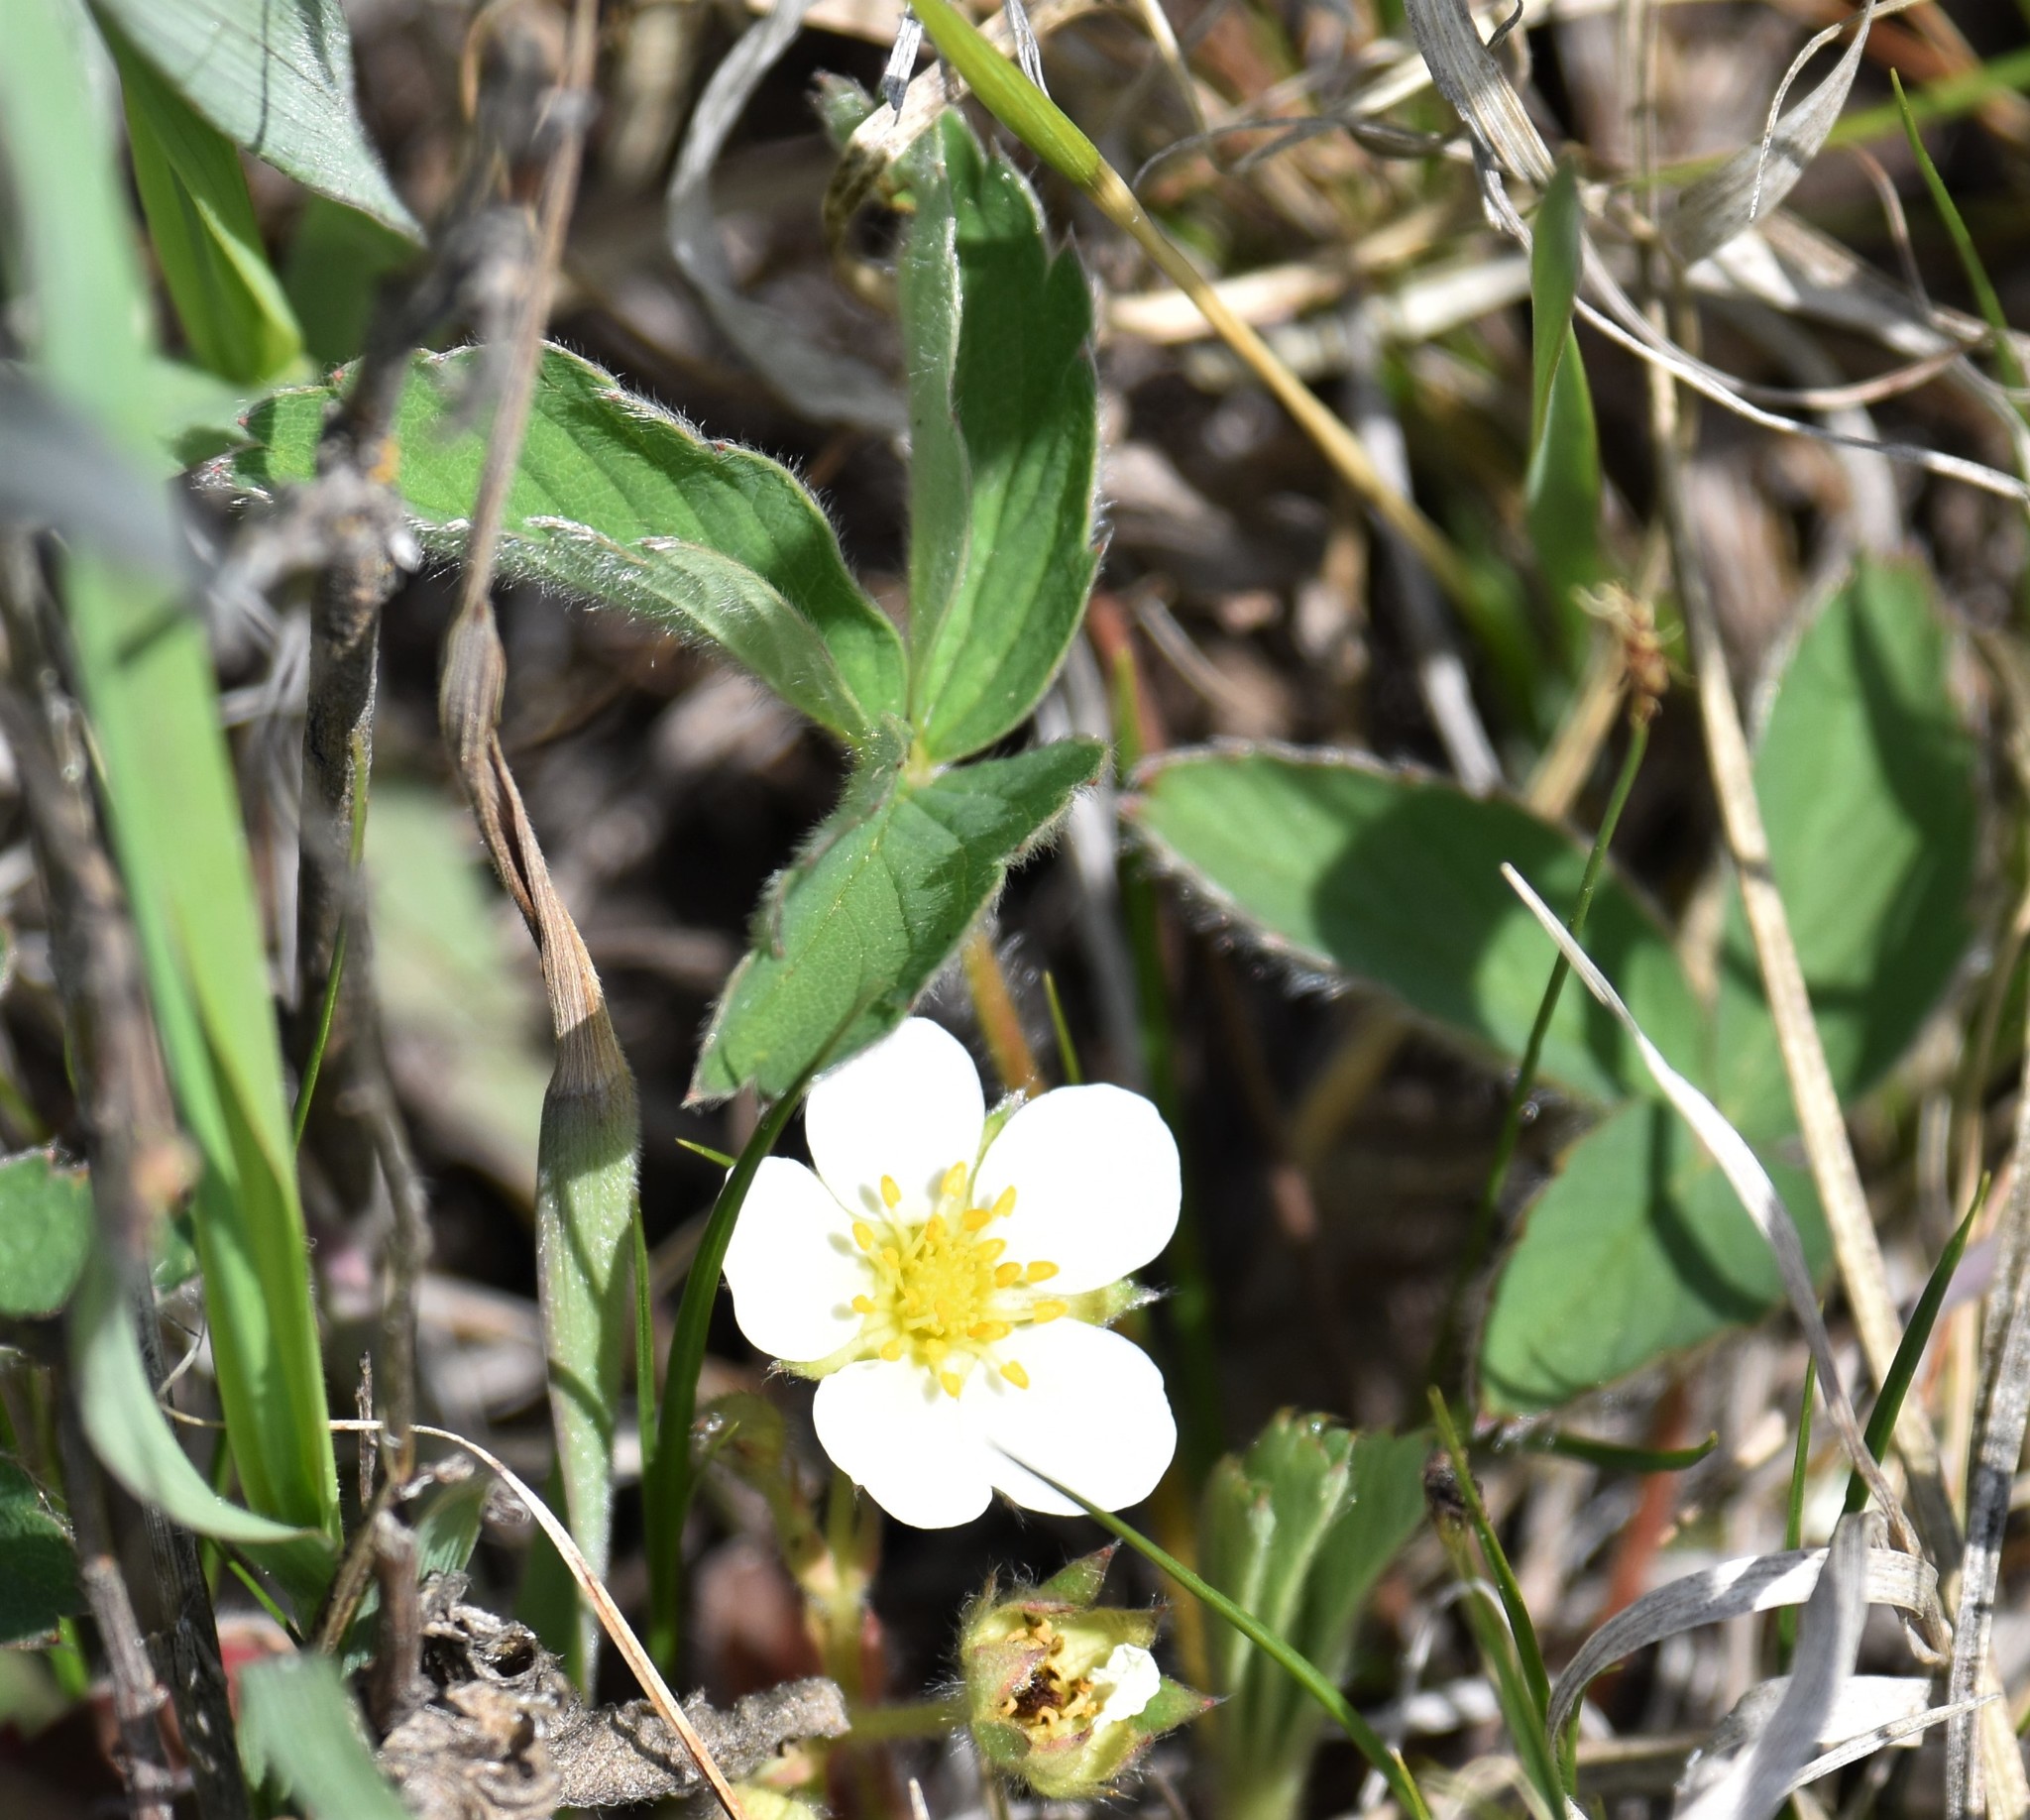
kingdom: Plantae
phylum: Tracheophyta
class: Magnoliopsida
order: Rosales
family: Rosaceae
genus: Fragaria
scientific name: Fragaria virginiana
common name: Thickleaved wild strawberry
